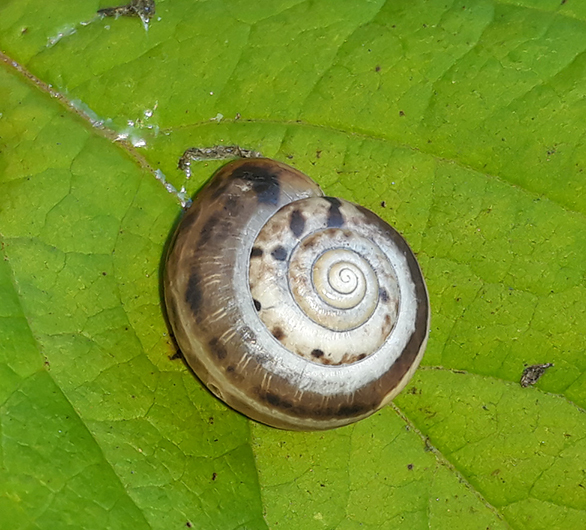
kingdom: Animalia
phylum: Mollusca
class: Gastropoda
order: Stylommatophora
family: Hygromiidae
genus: Monacha
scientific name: Monacha cartusiana
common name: Carthusian snail
